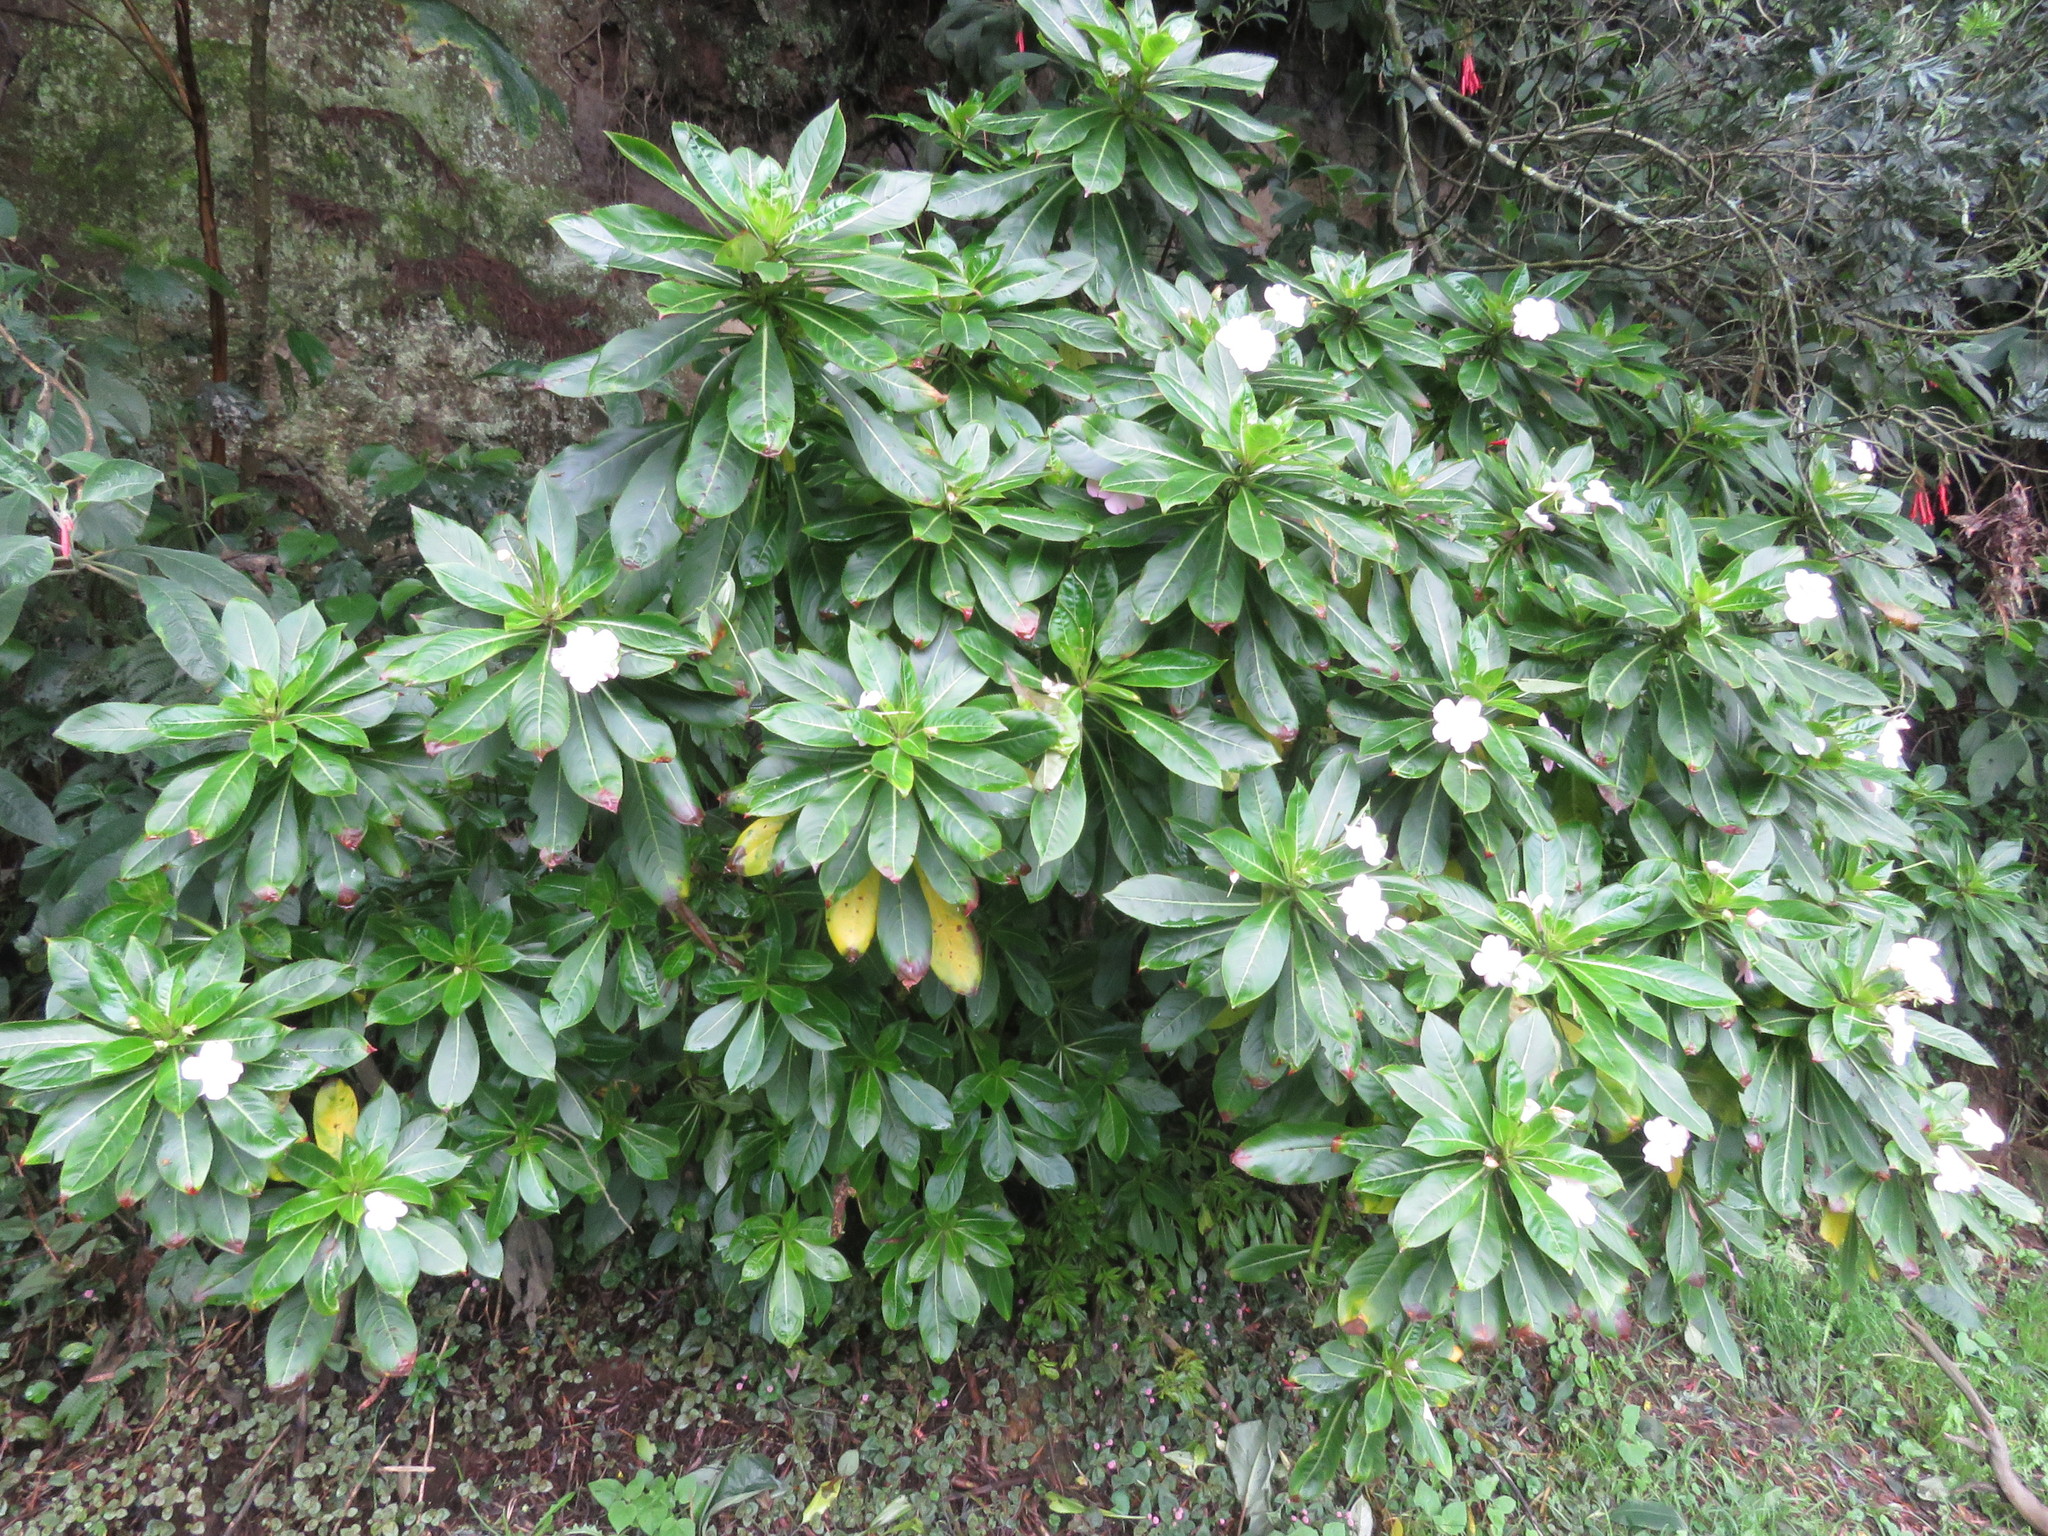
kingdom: Plantae
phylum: Tracheophyta
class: Magnoliopsida
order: Ericales
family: Balsaminaceae
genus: Impatiens
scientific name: Impatiens sodenii
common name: Oliver's touch-me-not
